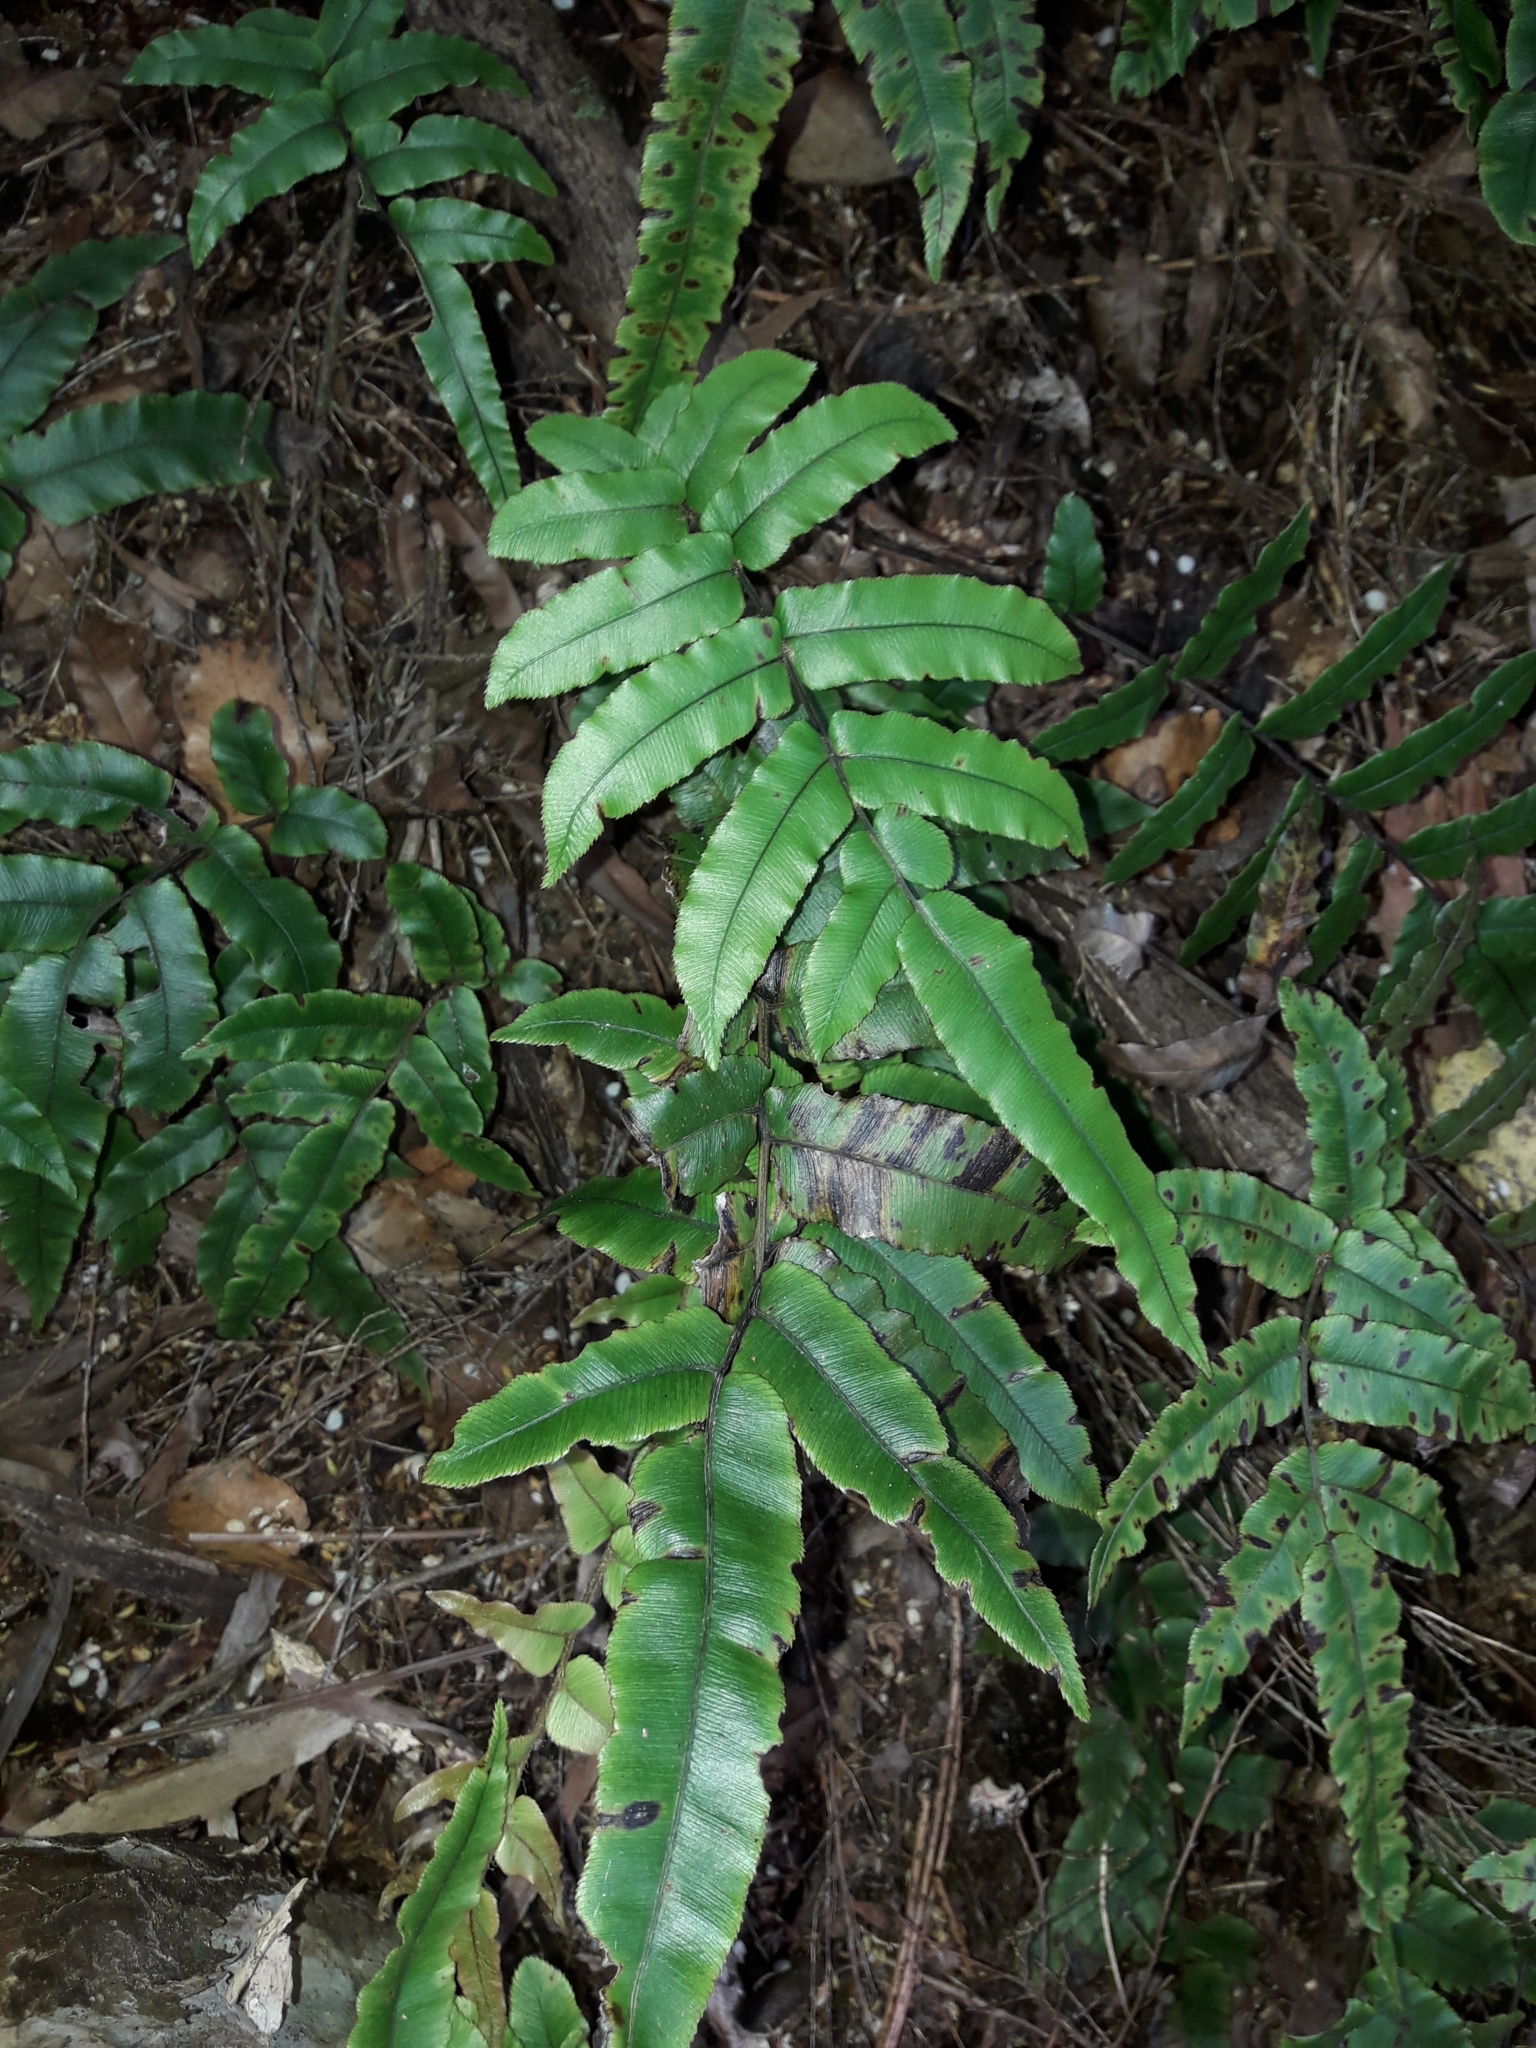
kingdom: Plantae
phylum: Tracheophyta
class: Polypodiopsida
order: Polypodiales
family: Blechnaceae
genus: Parablechnum
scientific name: Parablechnum procerum
